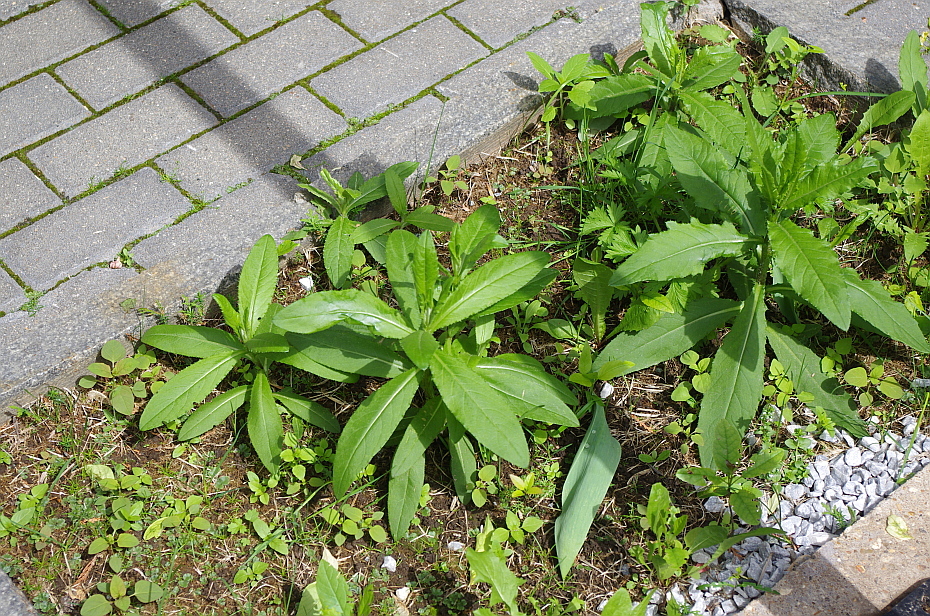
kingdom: Plantae
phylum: Tracheophyta
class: Magnoliopsida
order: Lamiales
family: Plantaginaceae
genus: Veronica
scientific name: Veronica serpyllifolia
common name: Thyme-leaved speedwell
